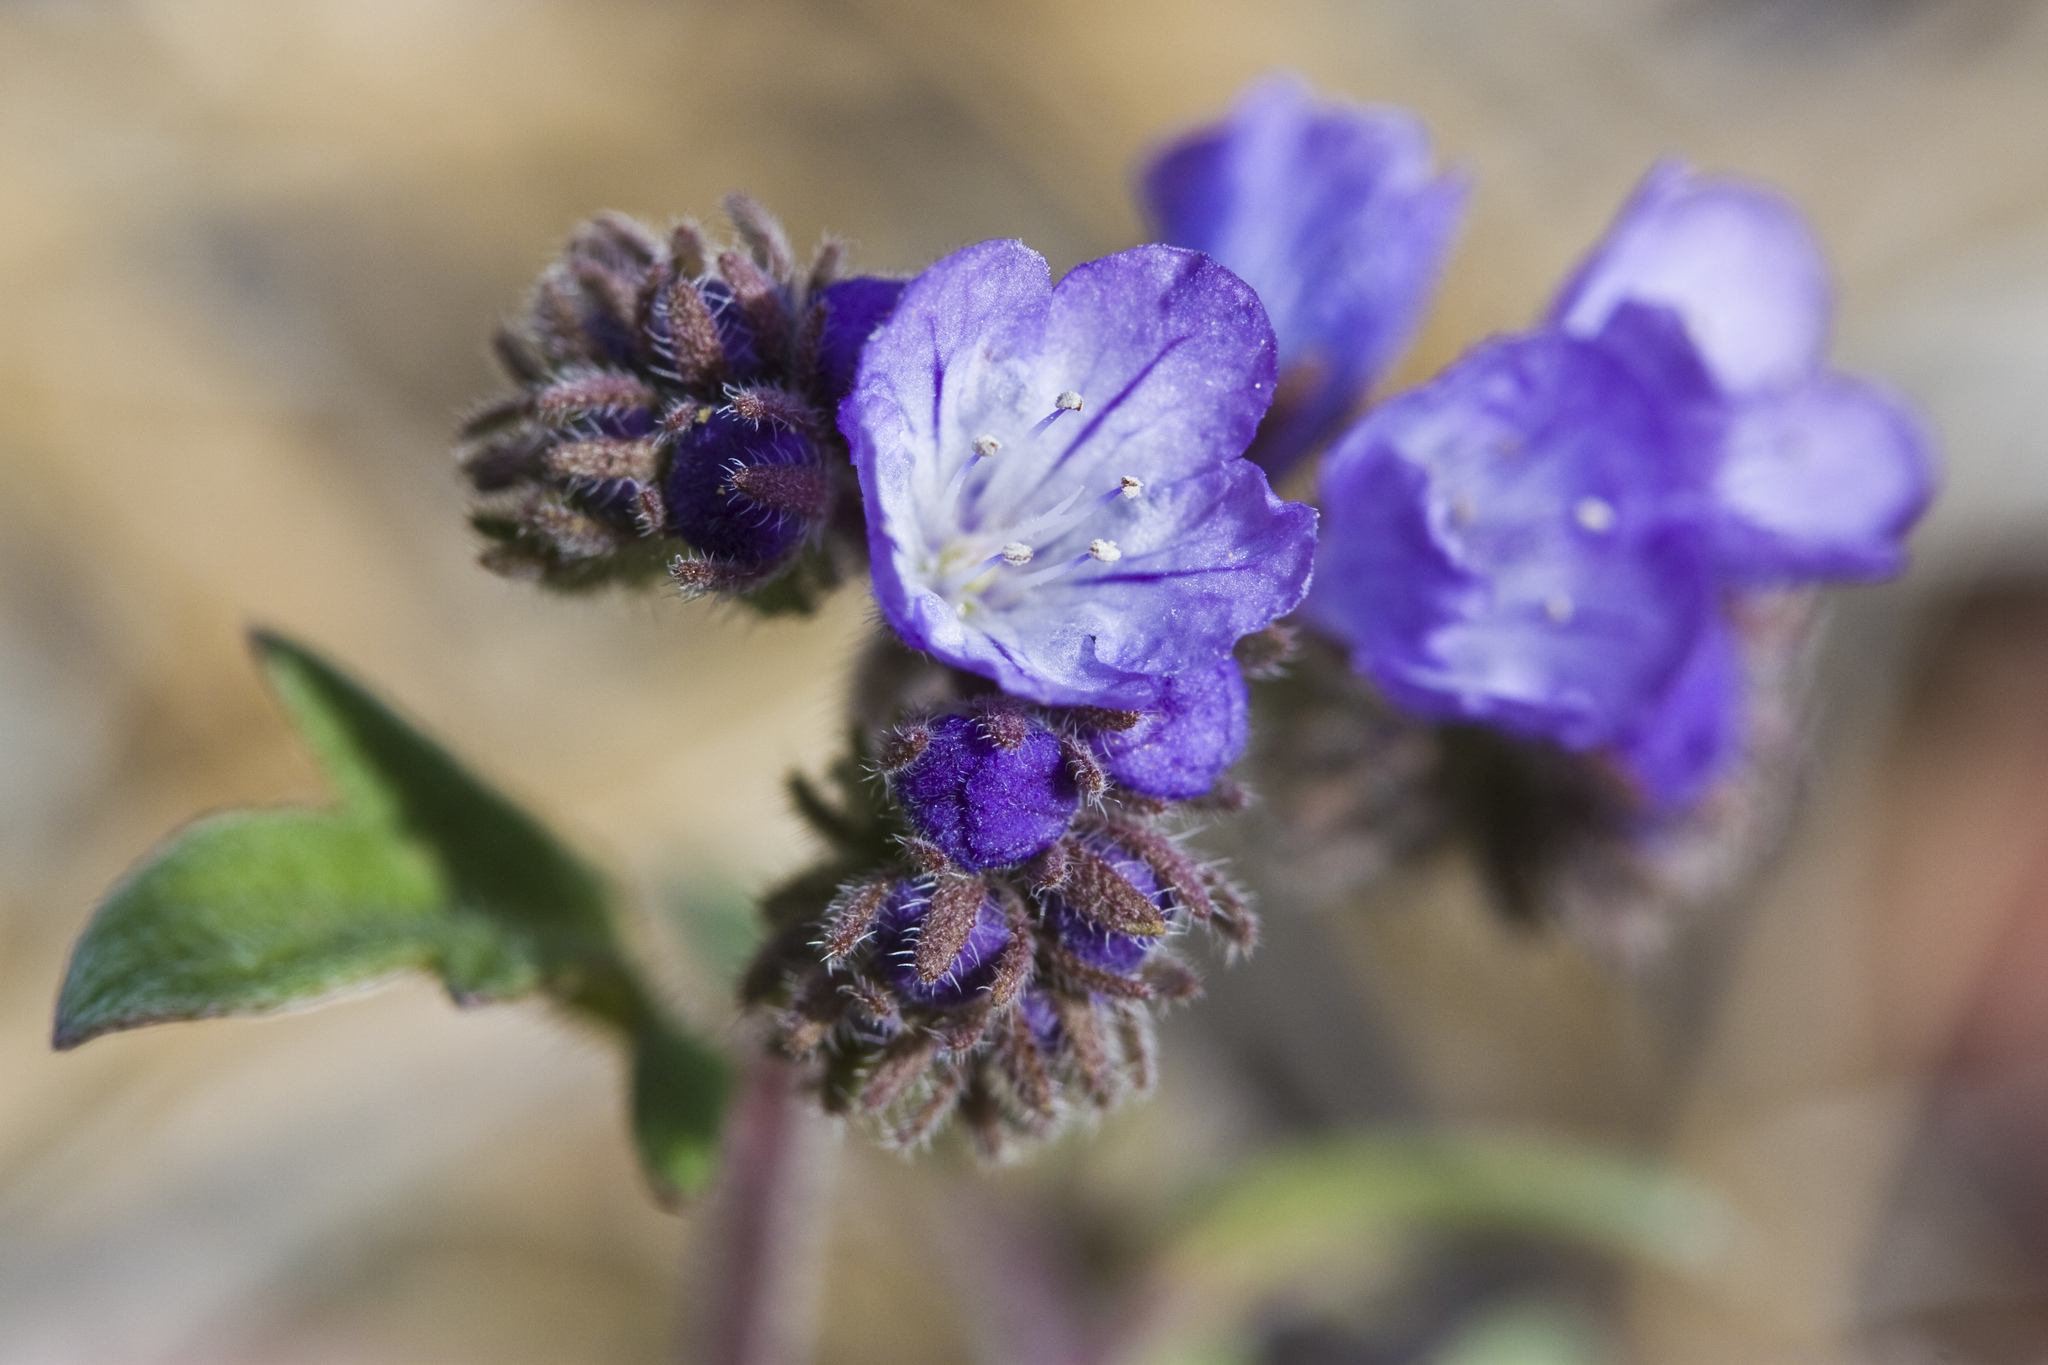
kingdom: Plantae
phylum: Tracheophyta
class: Magnoliopsida
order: Boraginales
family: Hydrophyllaceae
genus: Phacelia
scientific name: Phacelia breweri
